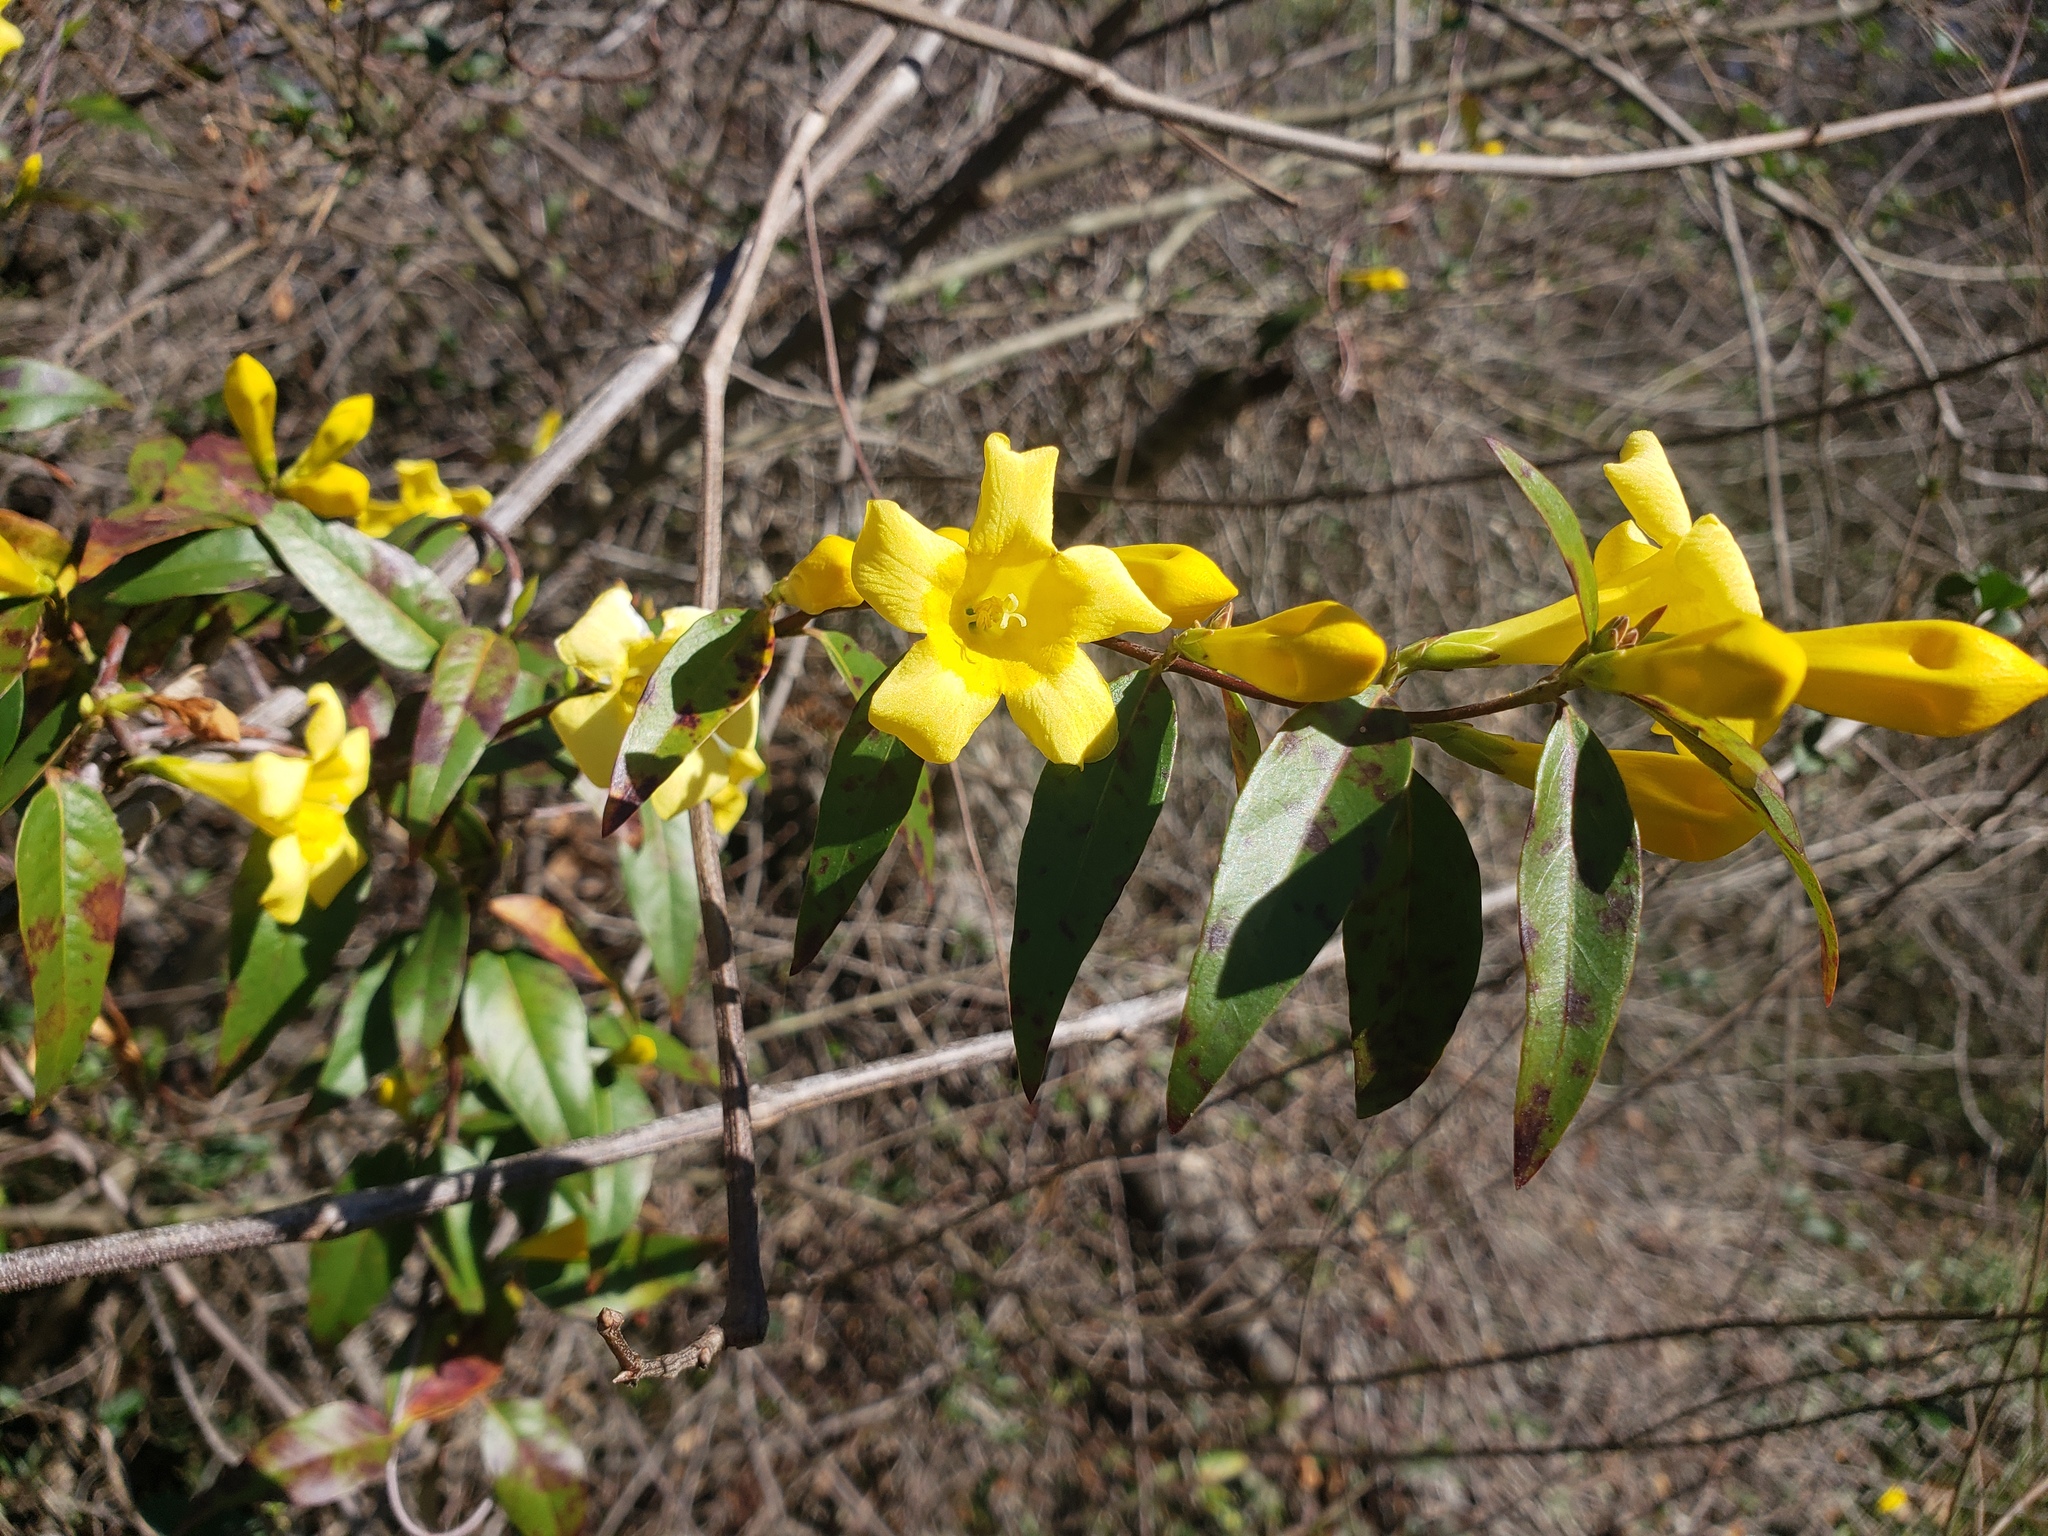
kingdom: Plantae
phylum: Tracheophyta
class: Magnoliopsida
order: Gentianales
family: Gelsemiaceae
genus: Gelsemium
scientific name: Gelsemium sempervirens
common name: Carolina-jasmine
